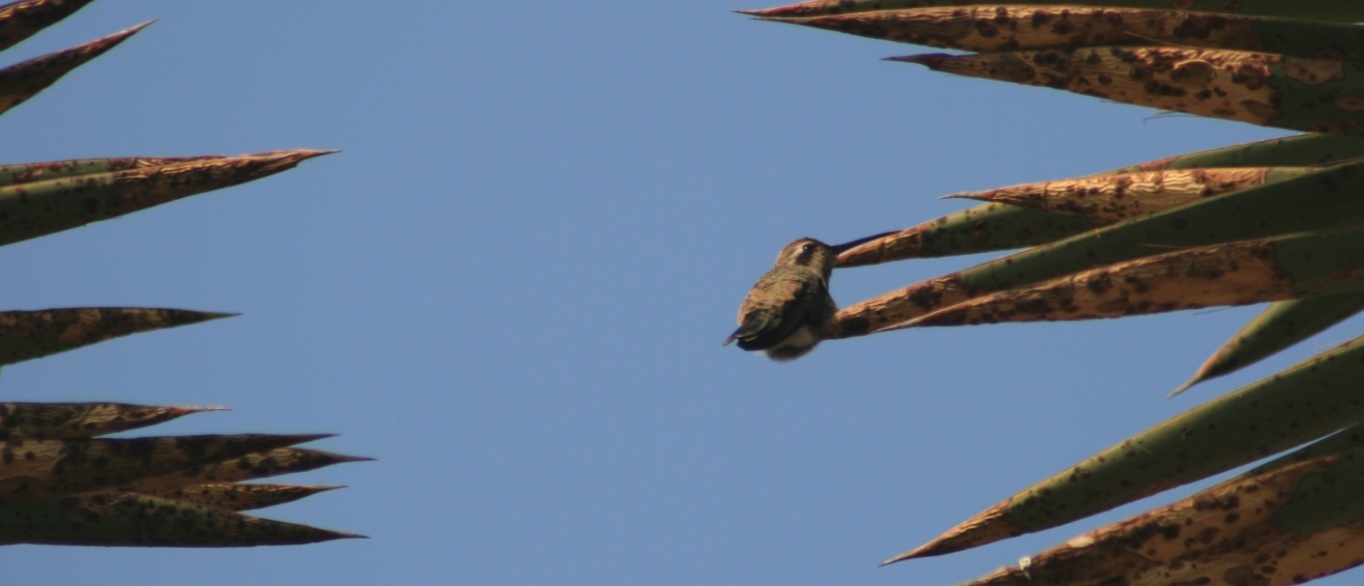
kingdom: Animalia
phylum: Chordata
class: Aves
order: Apodiformes
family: Trochilidae
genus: Cynanthus
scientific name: Cynanthus latirostris
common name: Broad-billed hummingbird
